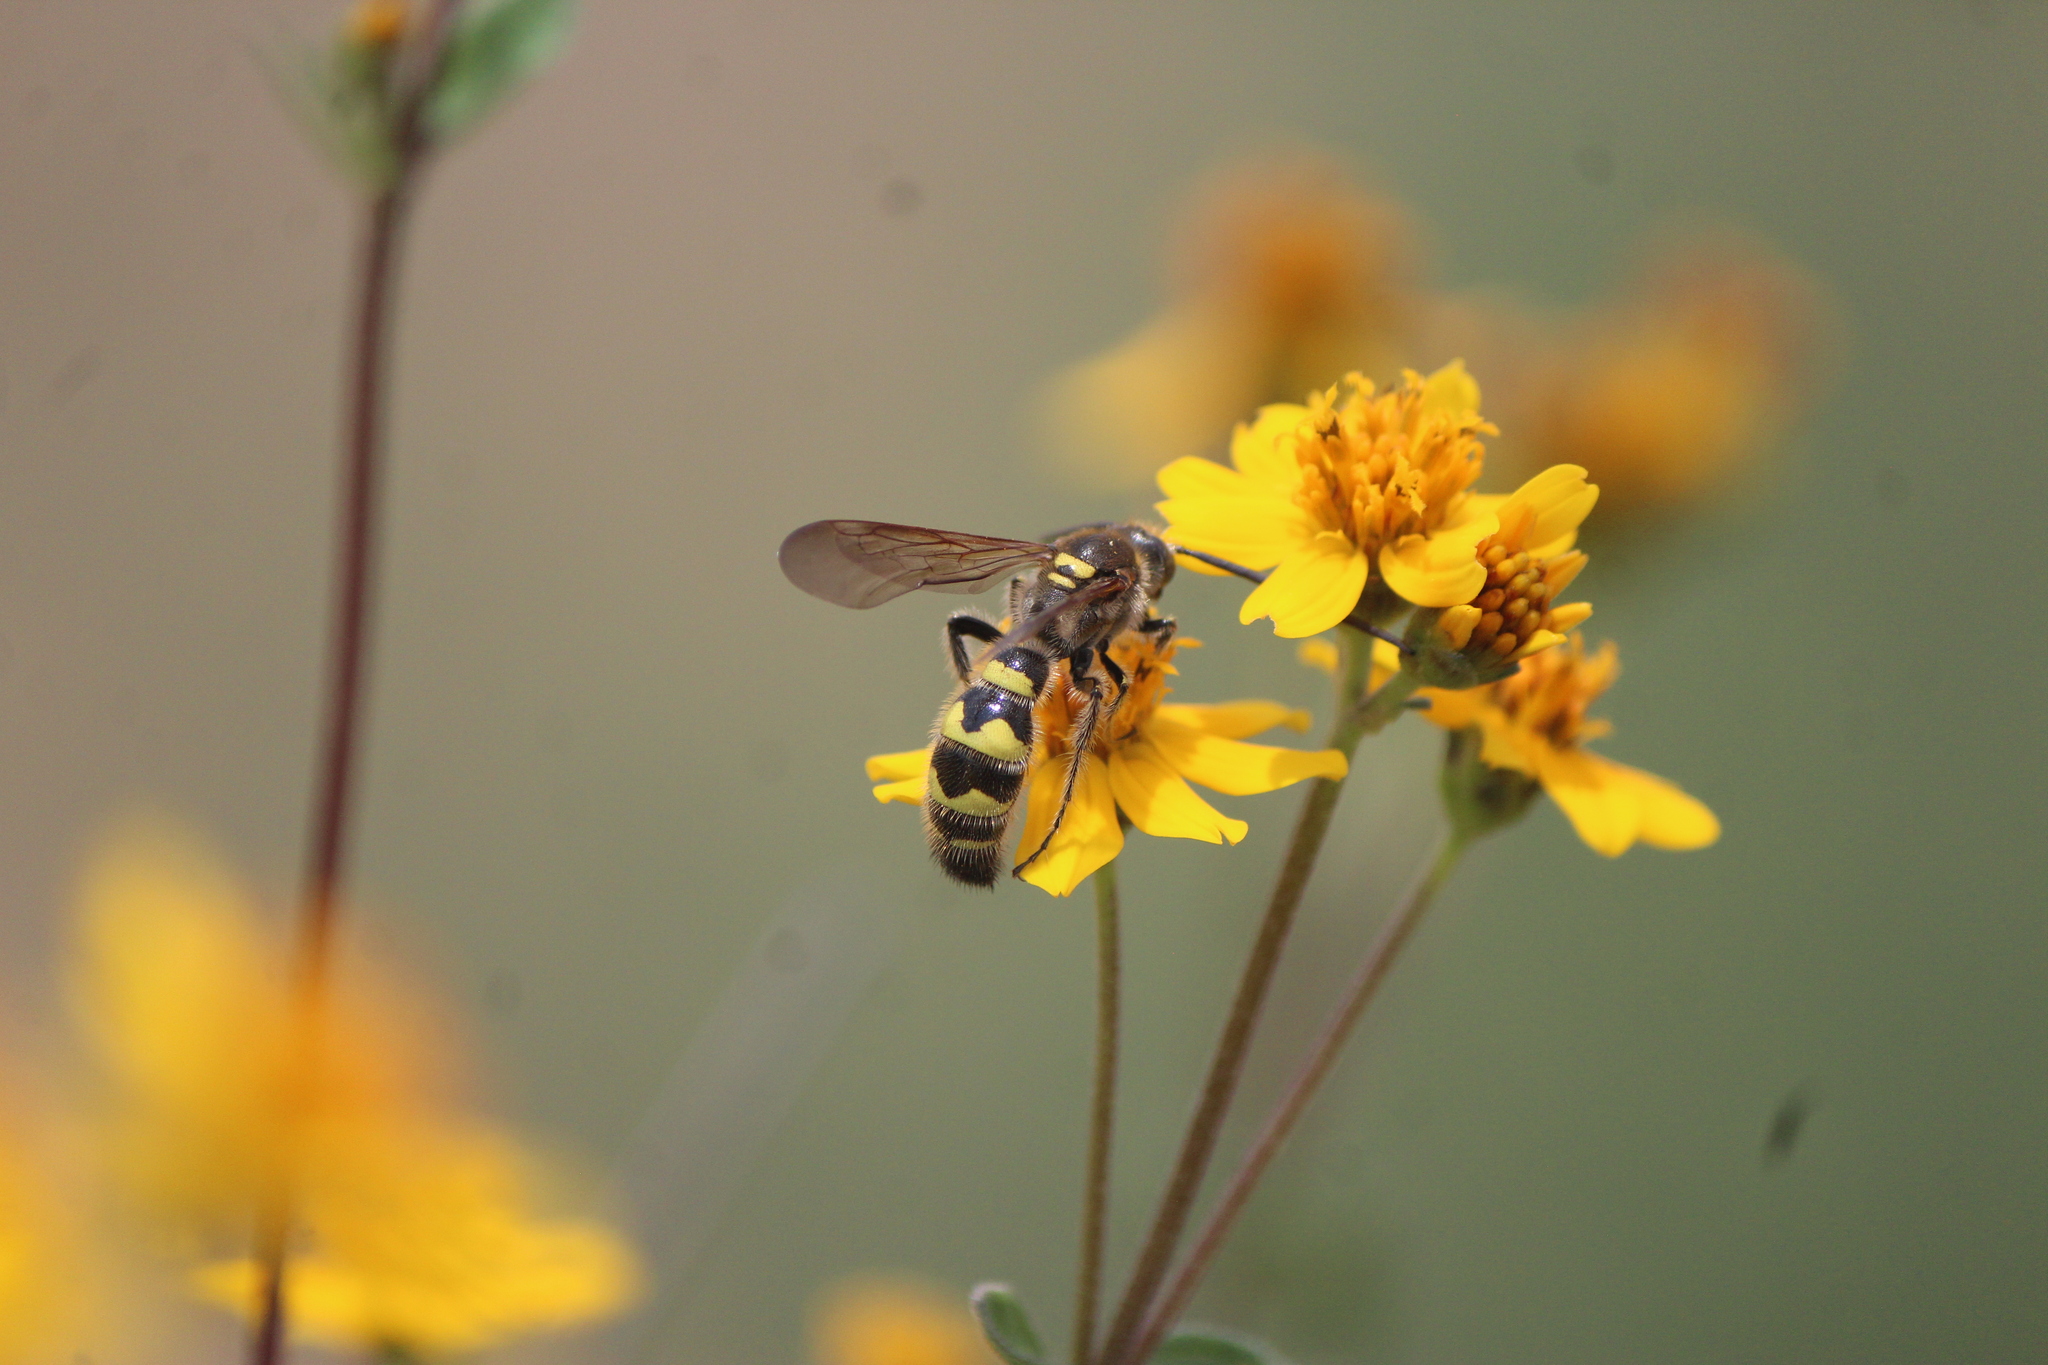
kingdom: Animalia
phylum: Arthropoda
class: Insecta
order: Hymenoptera
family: Scoliidae
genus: Xantocampsomeris
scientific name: Xantocampsomeris limosa
